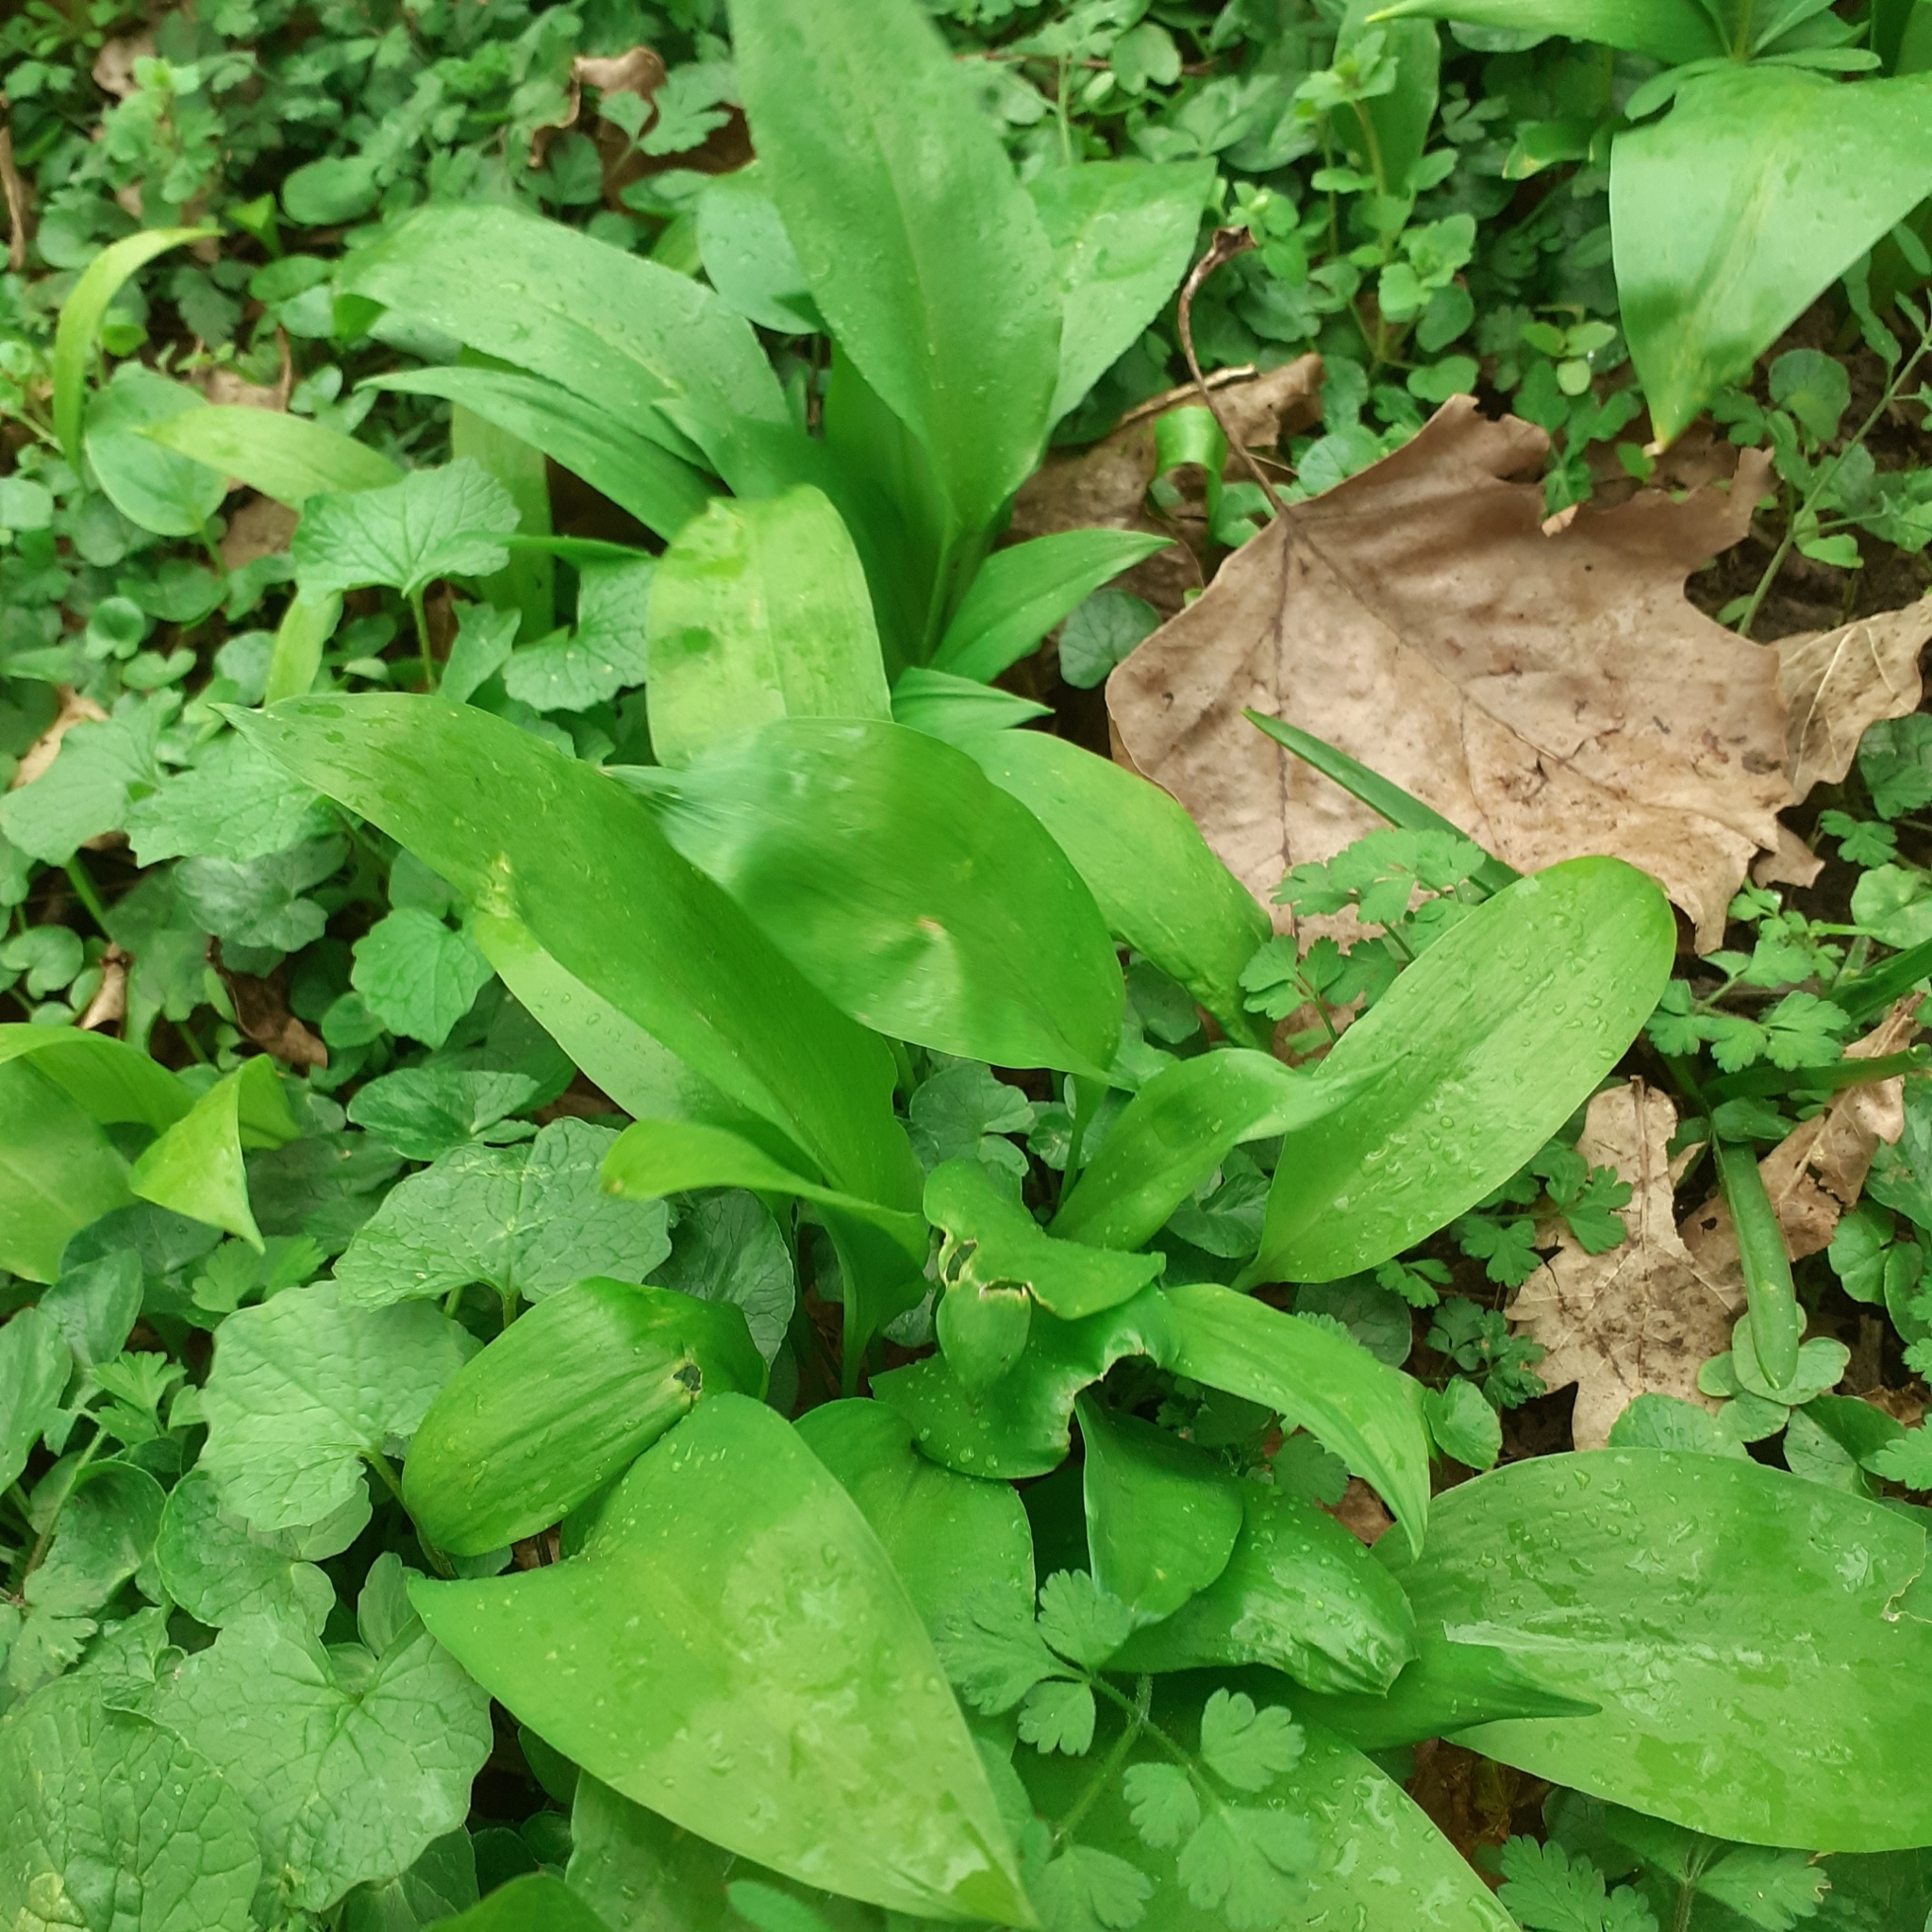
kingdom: Plantae
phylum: Tracheophyta
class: Liliopsida
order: Asparagales
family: Amaryllidaceae
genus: Allium
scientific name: Allium ursinum
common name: Ramsons
